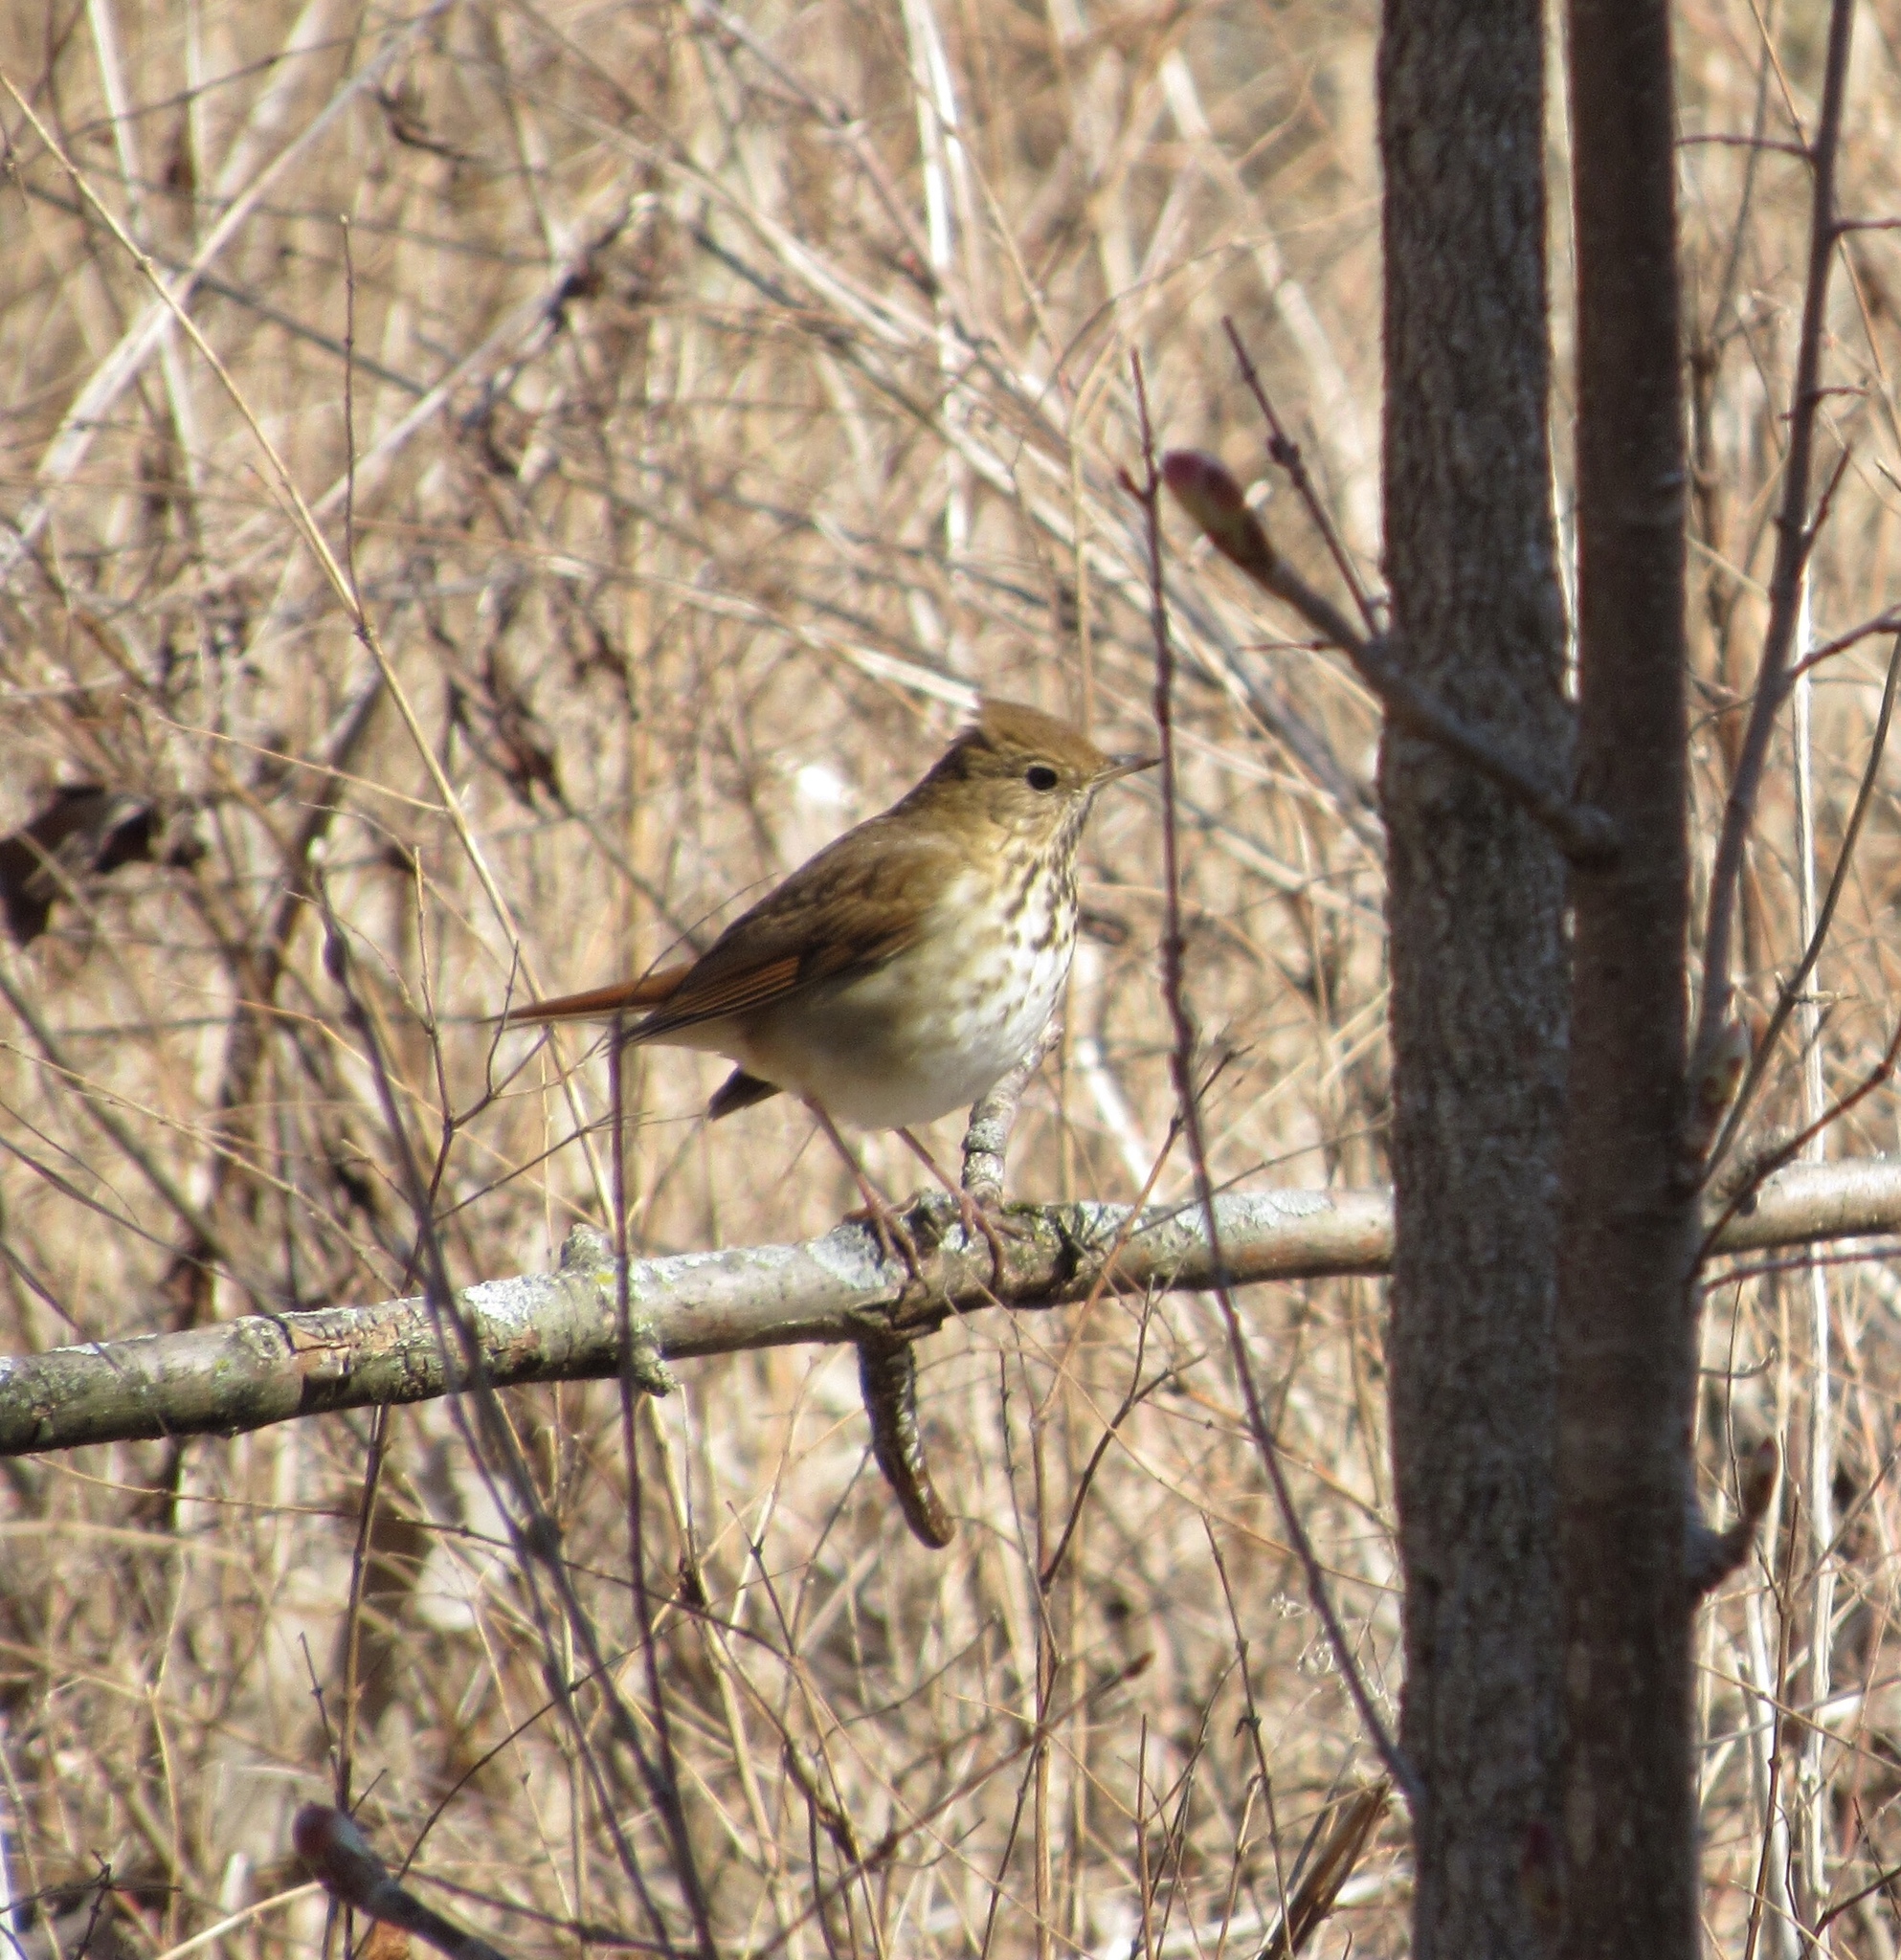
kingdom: Animalia
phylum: Chordata
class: Aves
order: Passeriformes
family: Turdidae
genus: Catharus
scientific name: Catharus guttatus
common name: Hermit thrush
